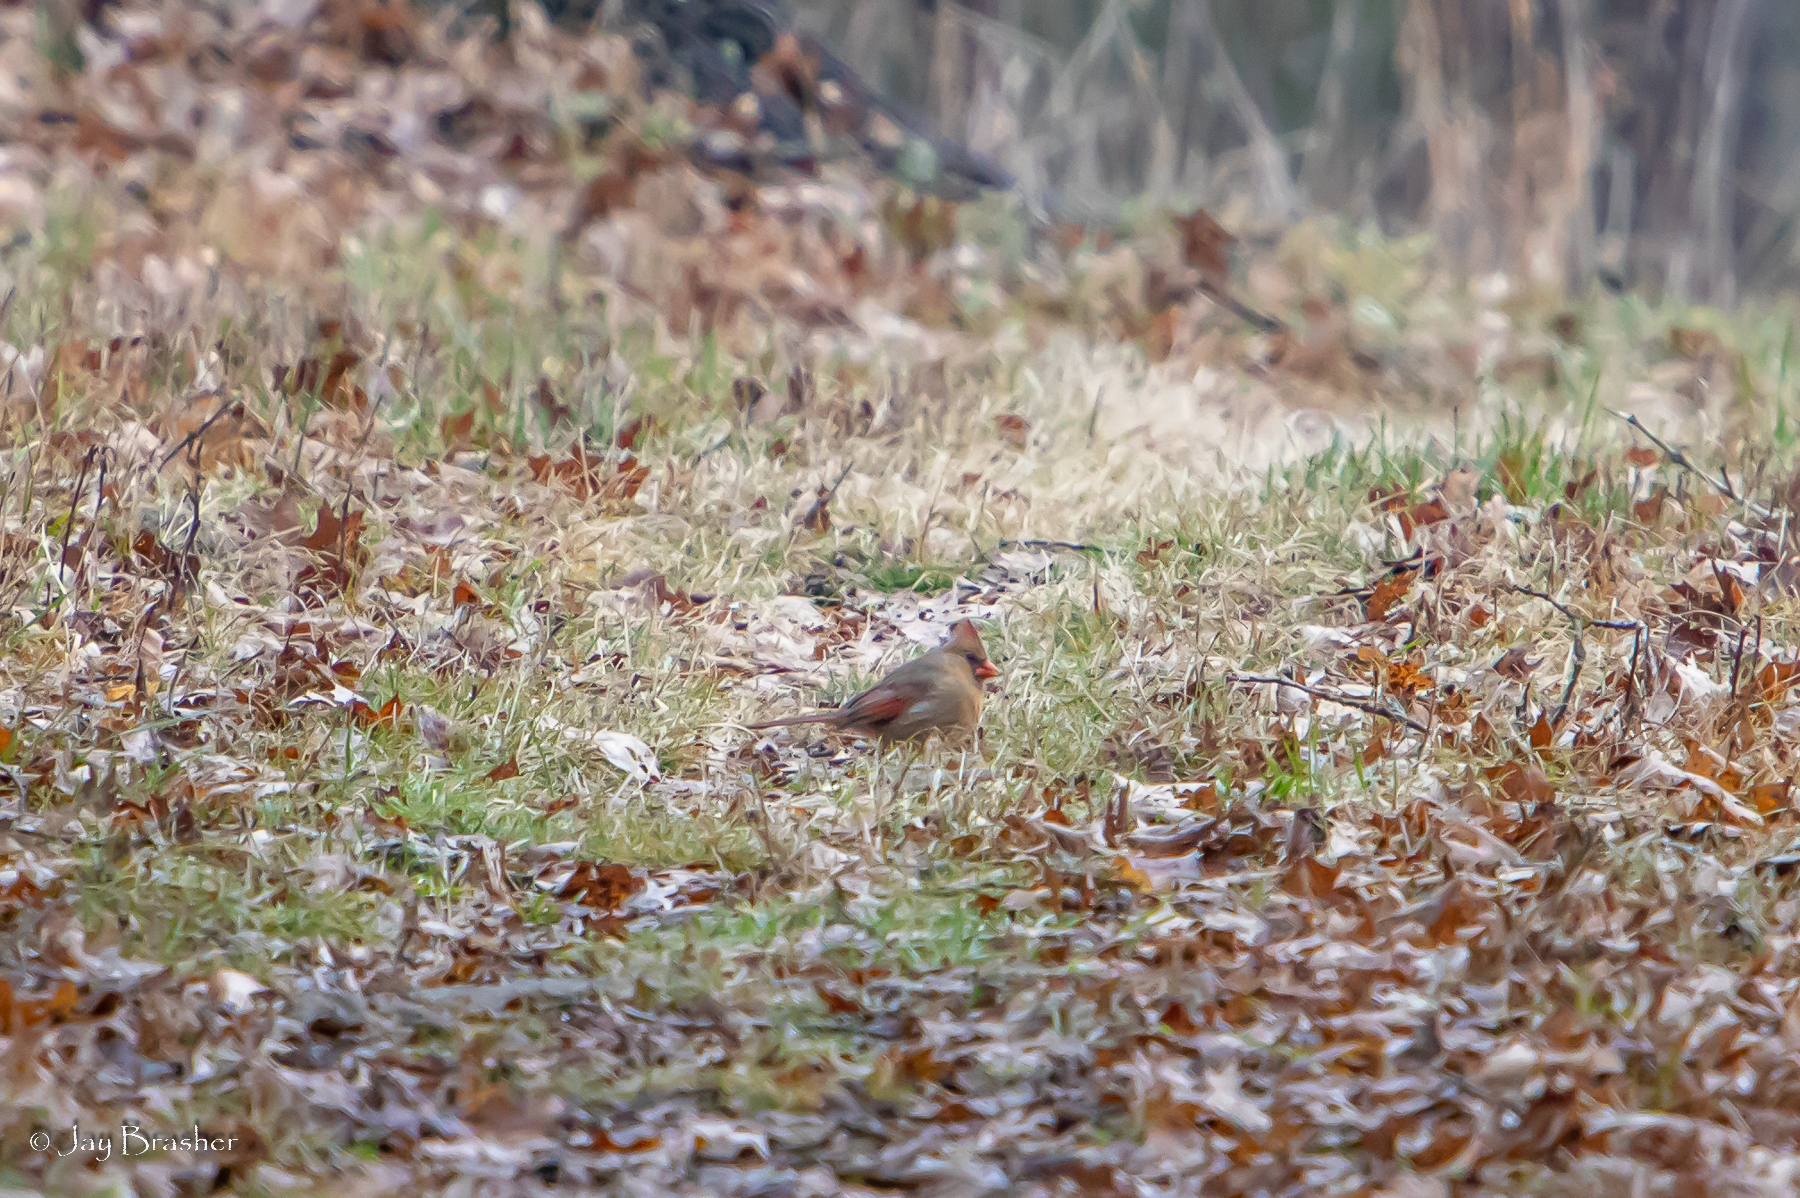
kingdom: Animalia
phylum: Chordata
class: Aves
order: Passeriformes
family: Cardinalidae
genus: Cardinalis
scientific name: Cardinalis cardinalis
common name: Northern cardinal
